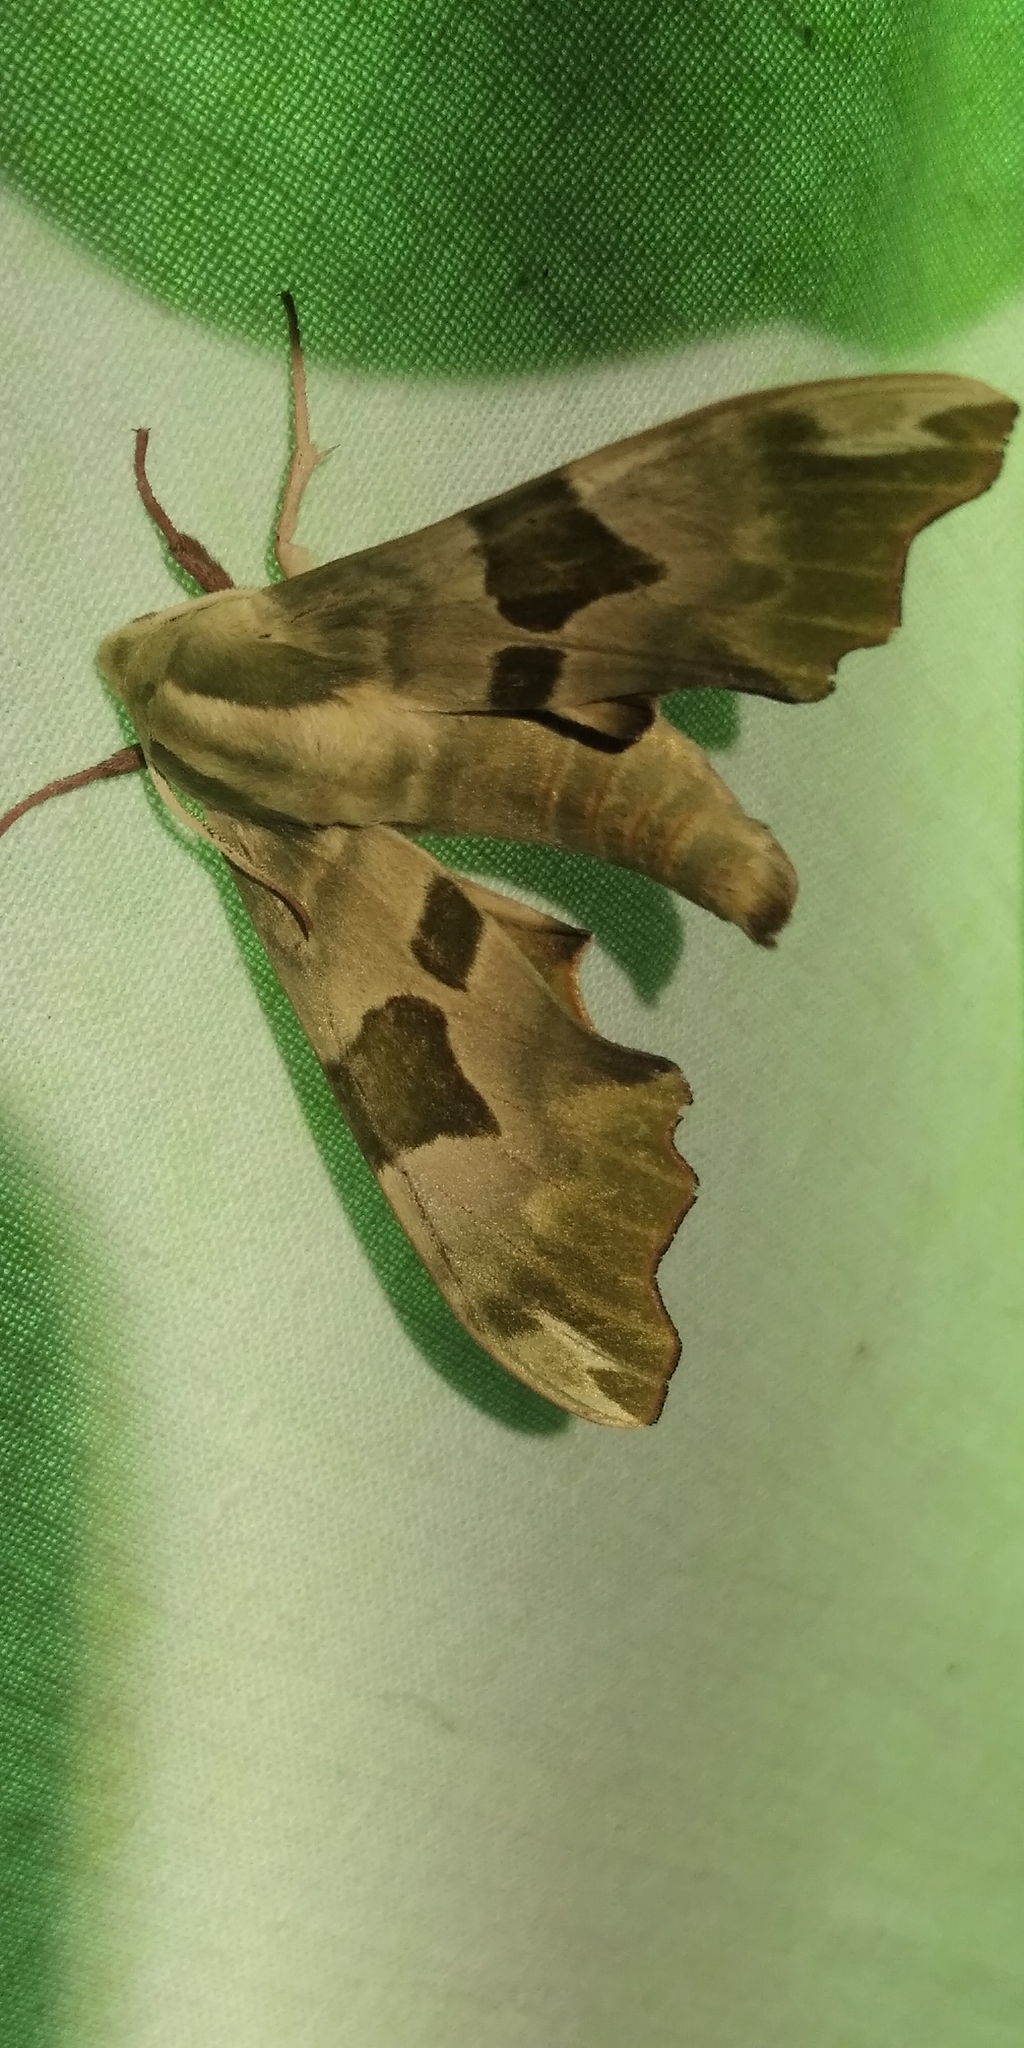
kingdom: Animalia
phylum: Arthropoda
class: Insecta
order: Lepidoptera
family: Sphingidae
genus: Mimas
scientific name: Mimas tiliae
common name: Lime hawk-moth
